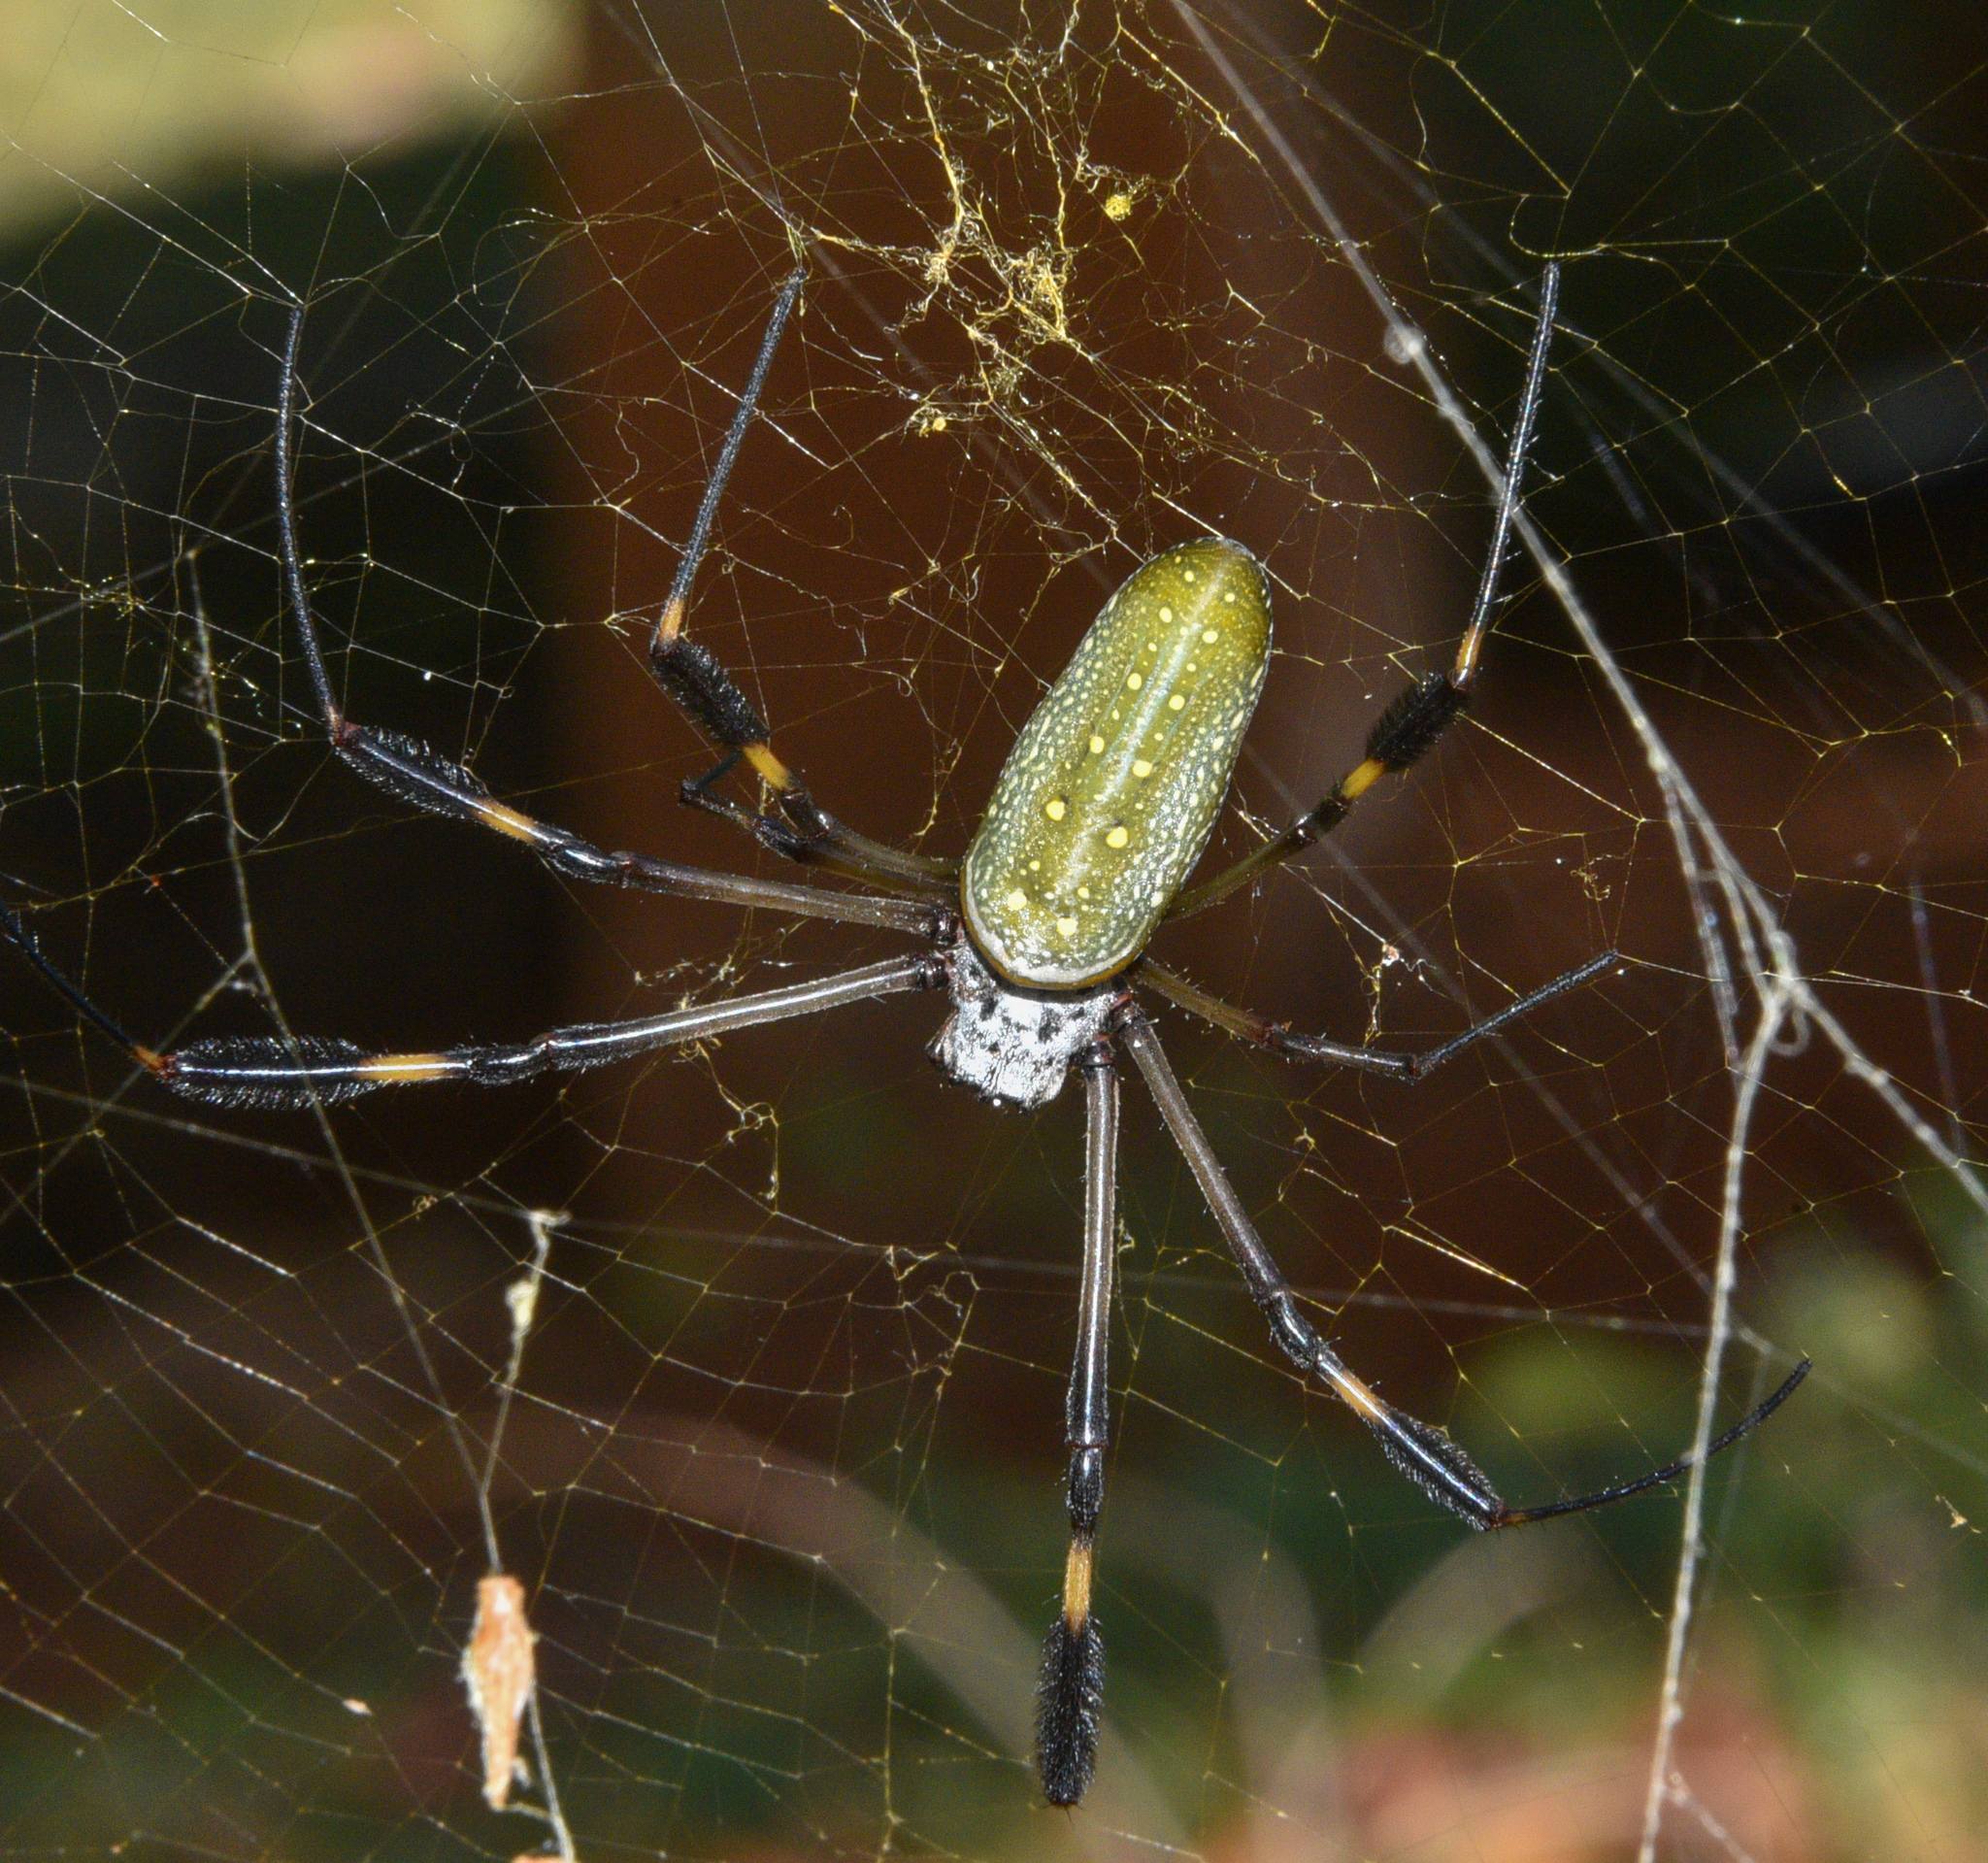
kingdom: Animalia
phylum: Arthropoda
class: Arachnida
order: Araneae
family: Araneidae
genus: Trichonephila
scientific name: Trichonephila clavipes
